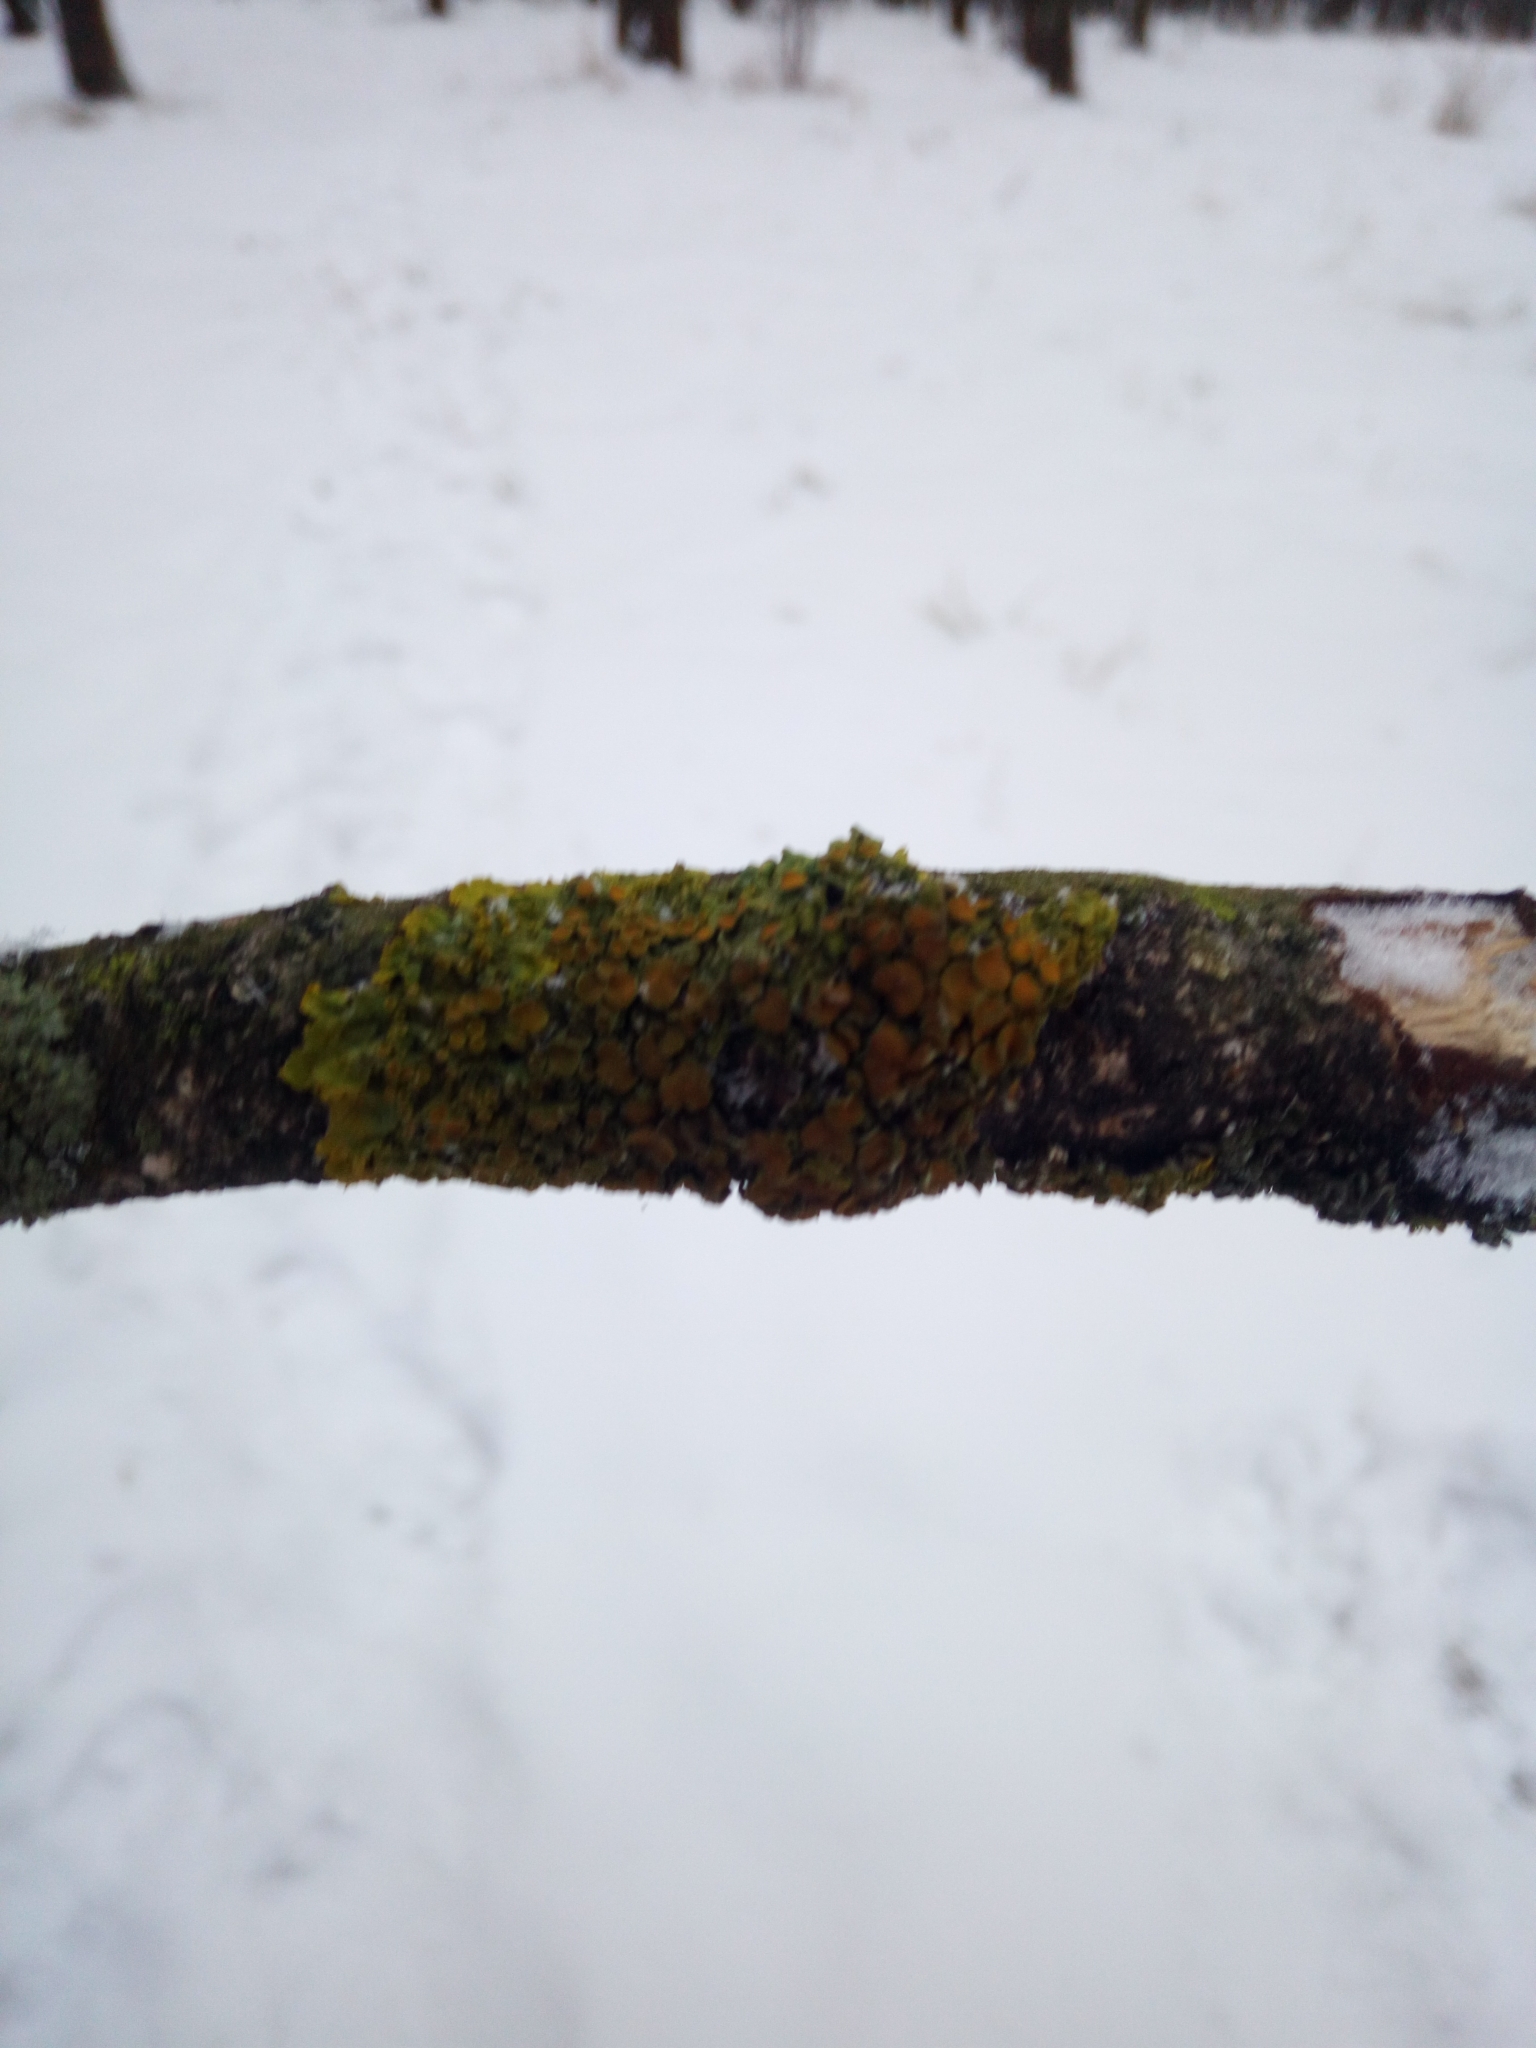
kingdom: Fungi
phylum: Ascomycota
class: Lecanoromycetes
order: Teloschistales
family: Teloschistaceae
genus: Xanthoria
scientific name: Xanthoria parietina
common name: Common orange lichen
